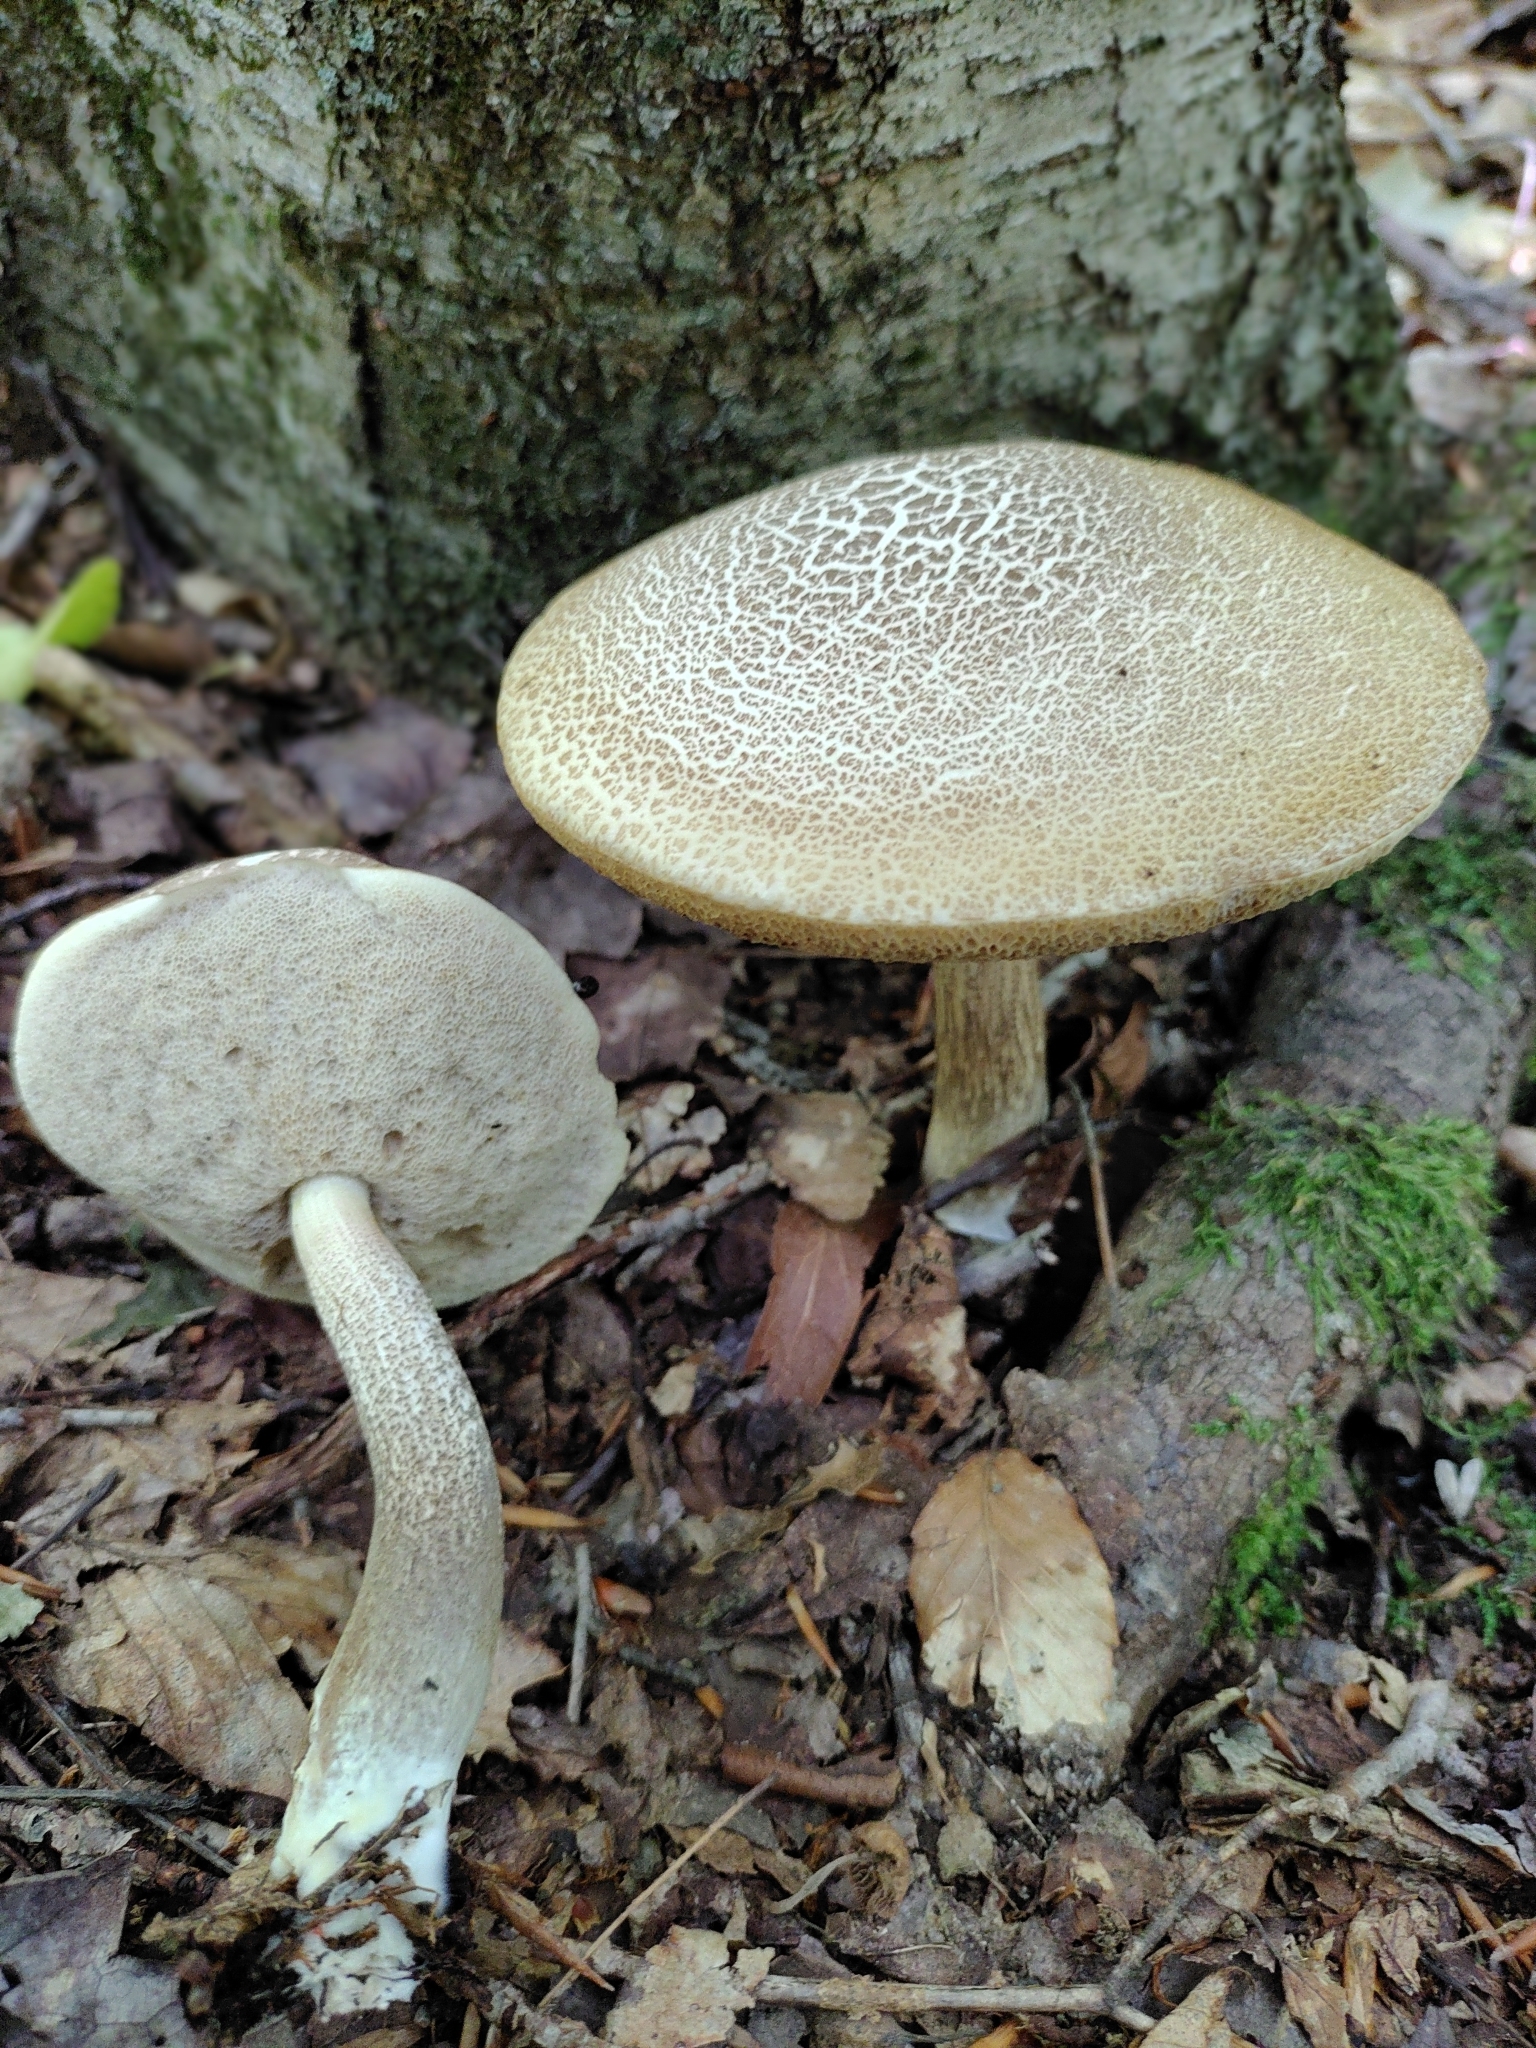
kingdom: Fungi
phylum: Basidiomycota
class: Agaricomycetes
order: Boletales
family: Boletaceae
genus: Leccinellum
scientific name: Leccinellum albellum
